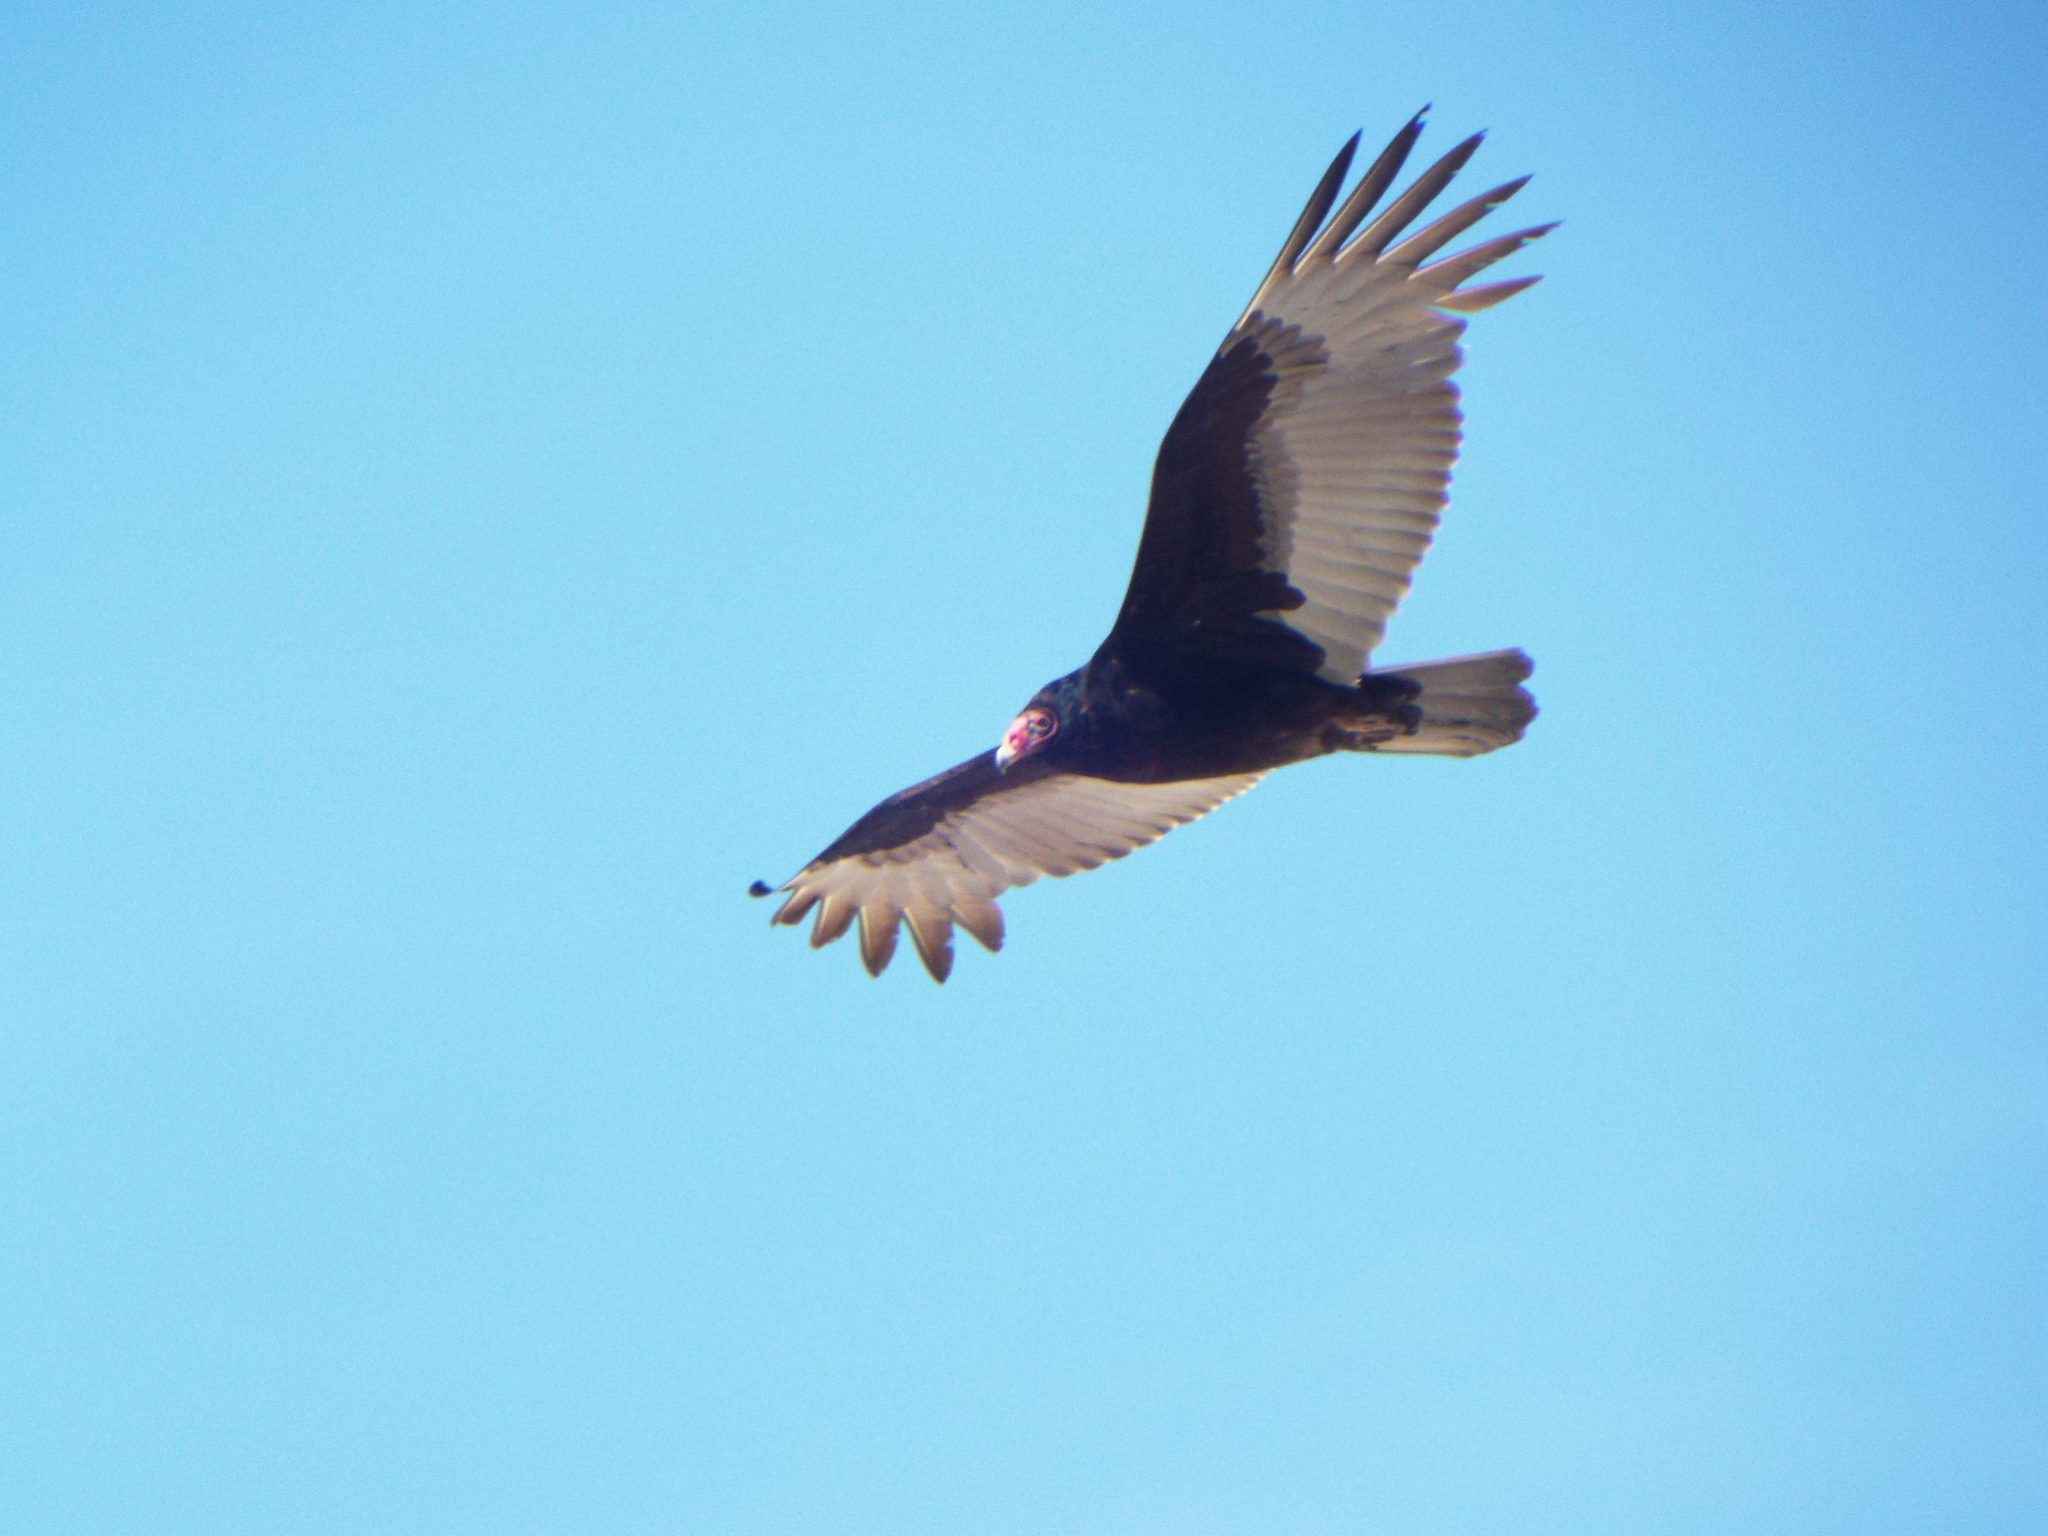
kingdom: Animalia
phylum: Chordata
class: Aves
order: Accipitriformes
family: Cathartidae
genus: Cathartes
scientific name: Cathartes aura
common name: Turkey vulture
